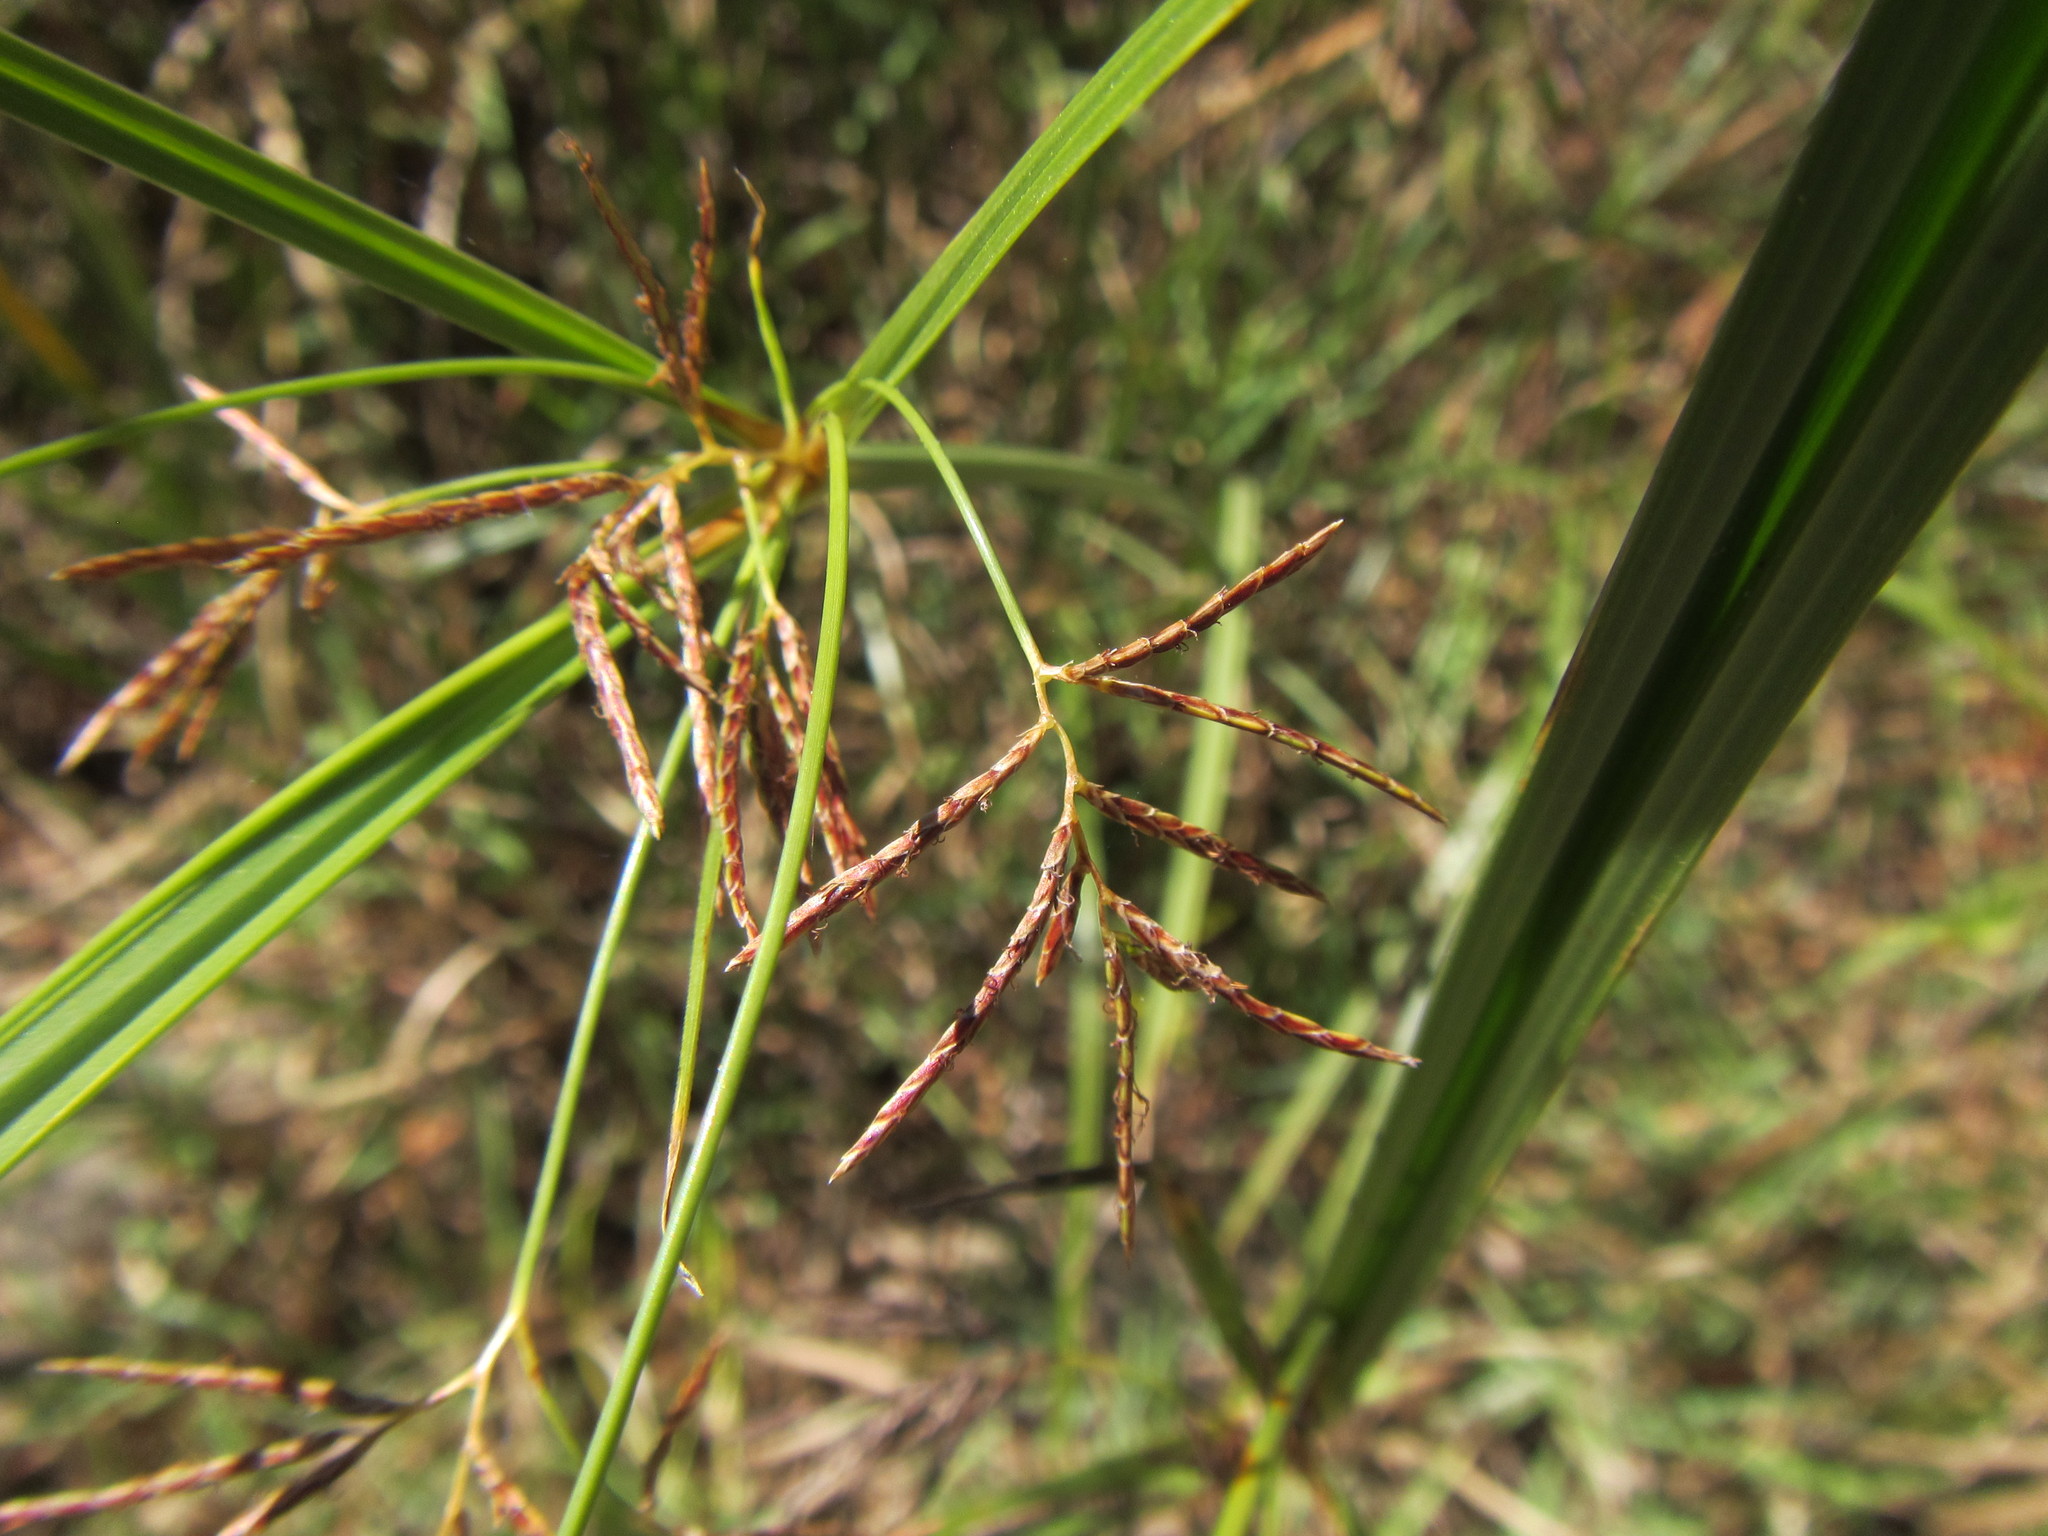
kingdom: Plantae
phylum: Tracheophyta
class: Liliopsida
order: Poales
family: Cyperaceae
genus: Cyperus
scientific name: Cyperus longus
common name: Galingale
